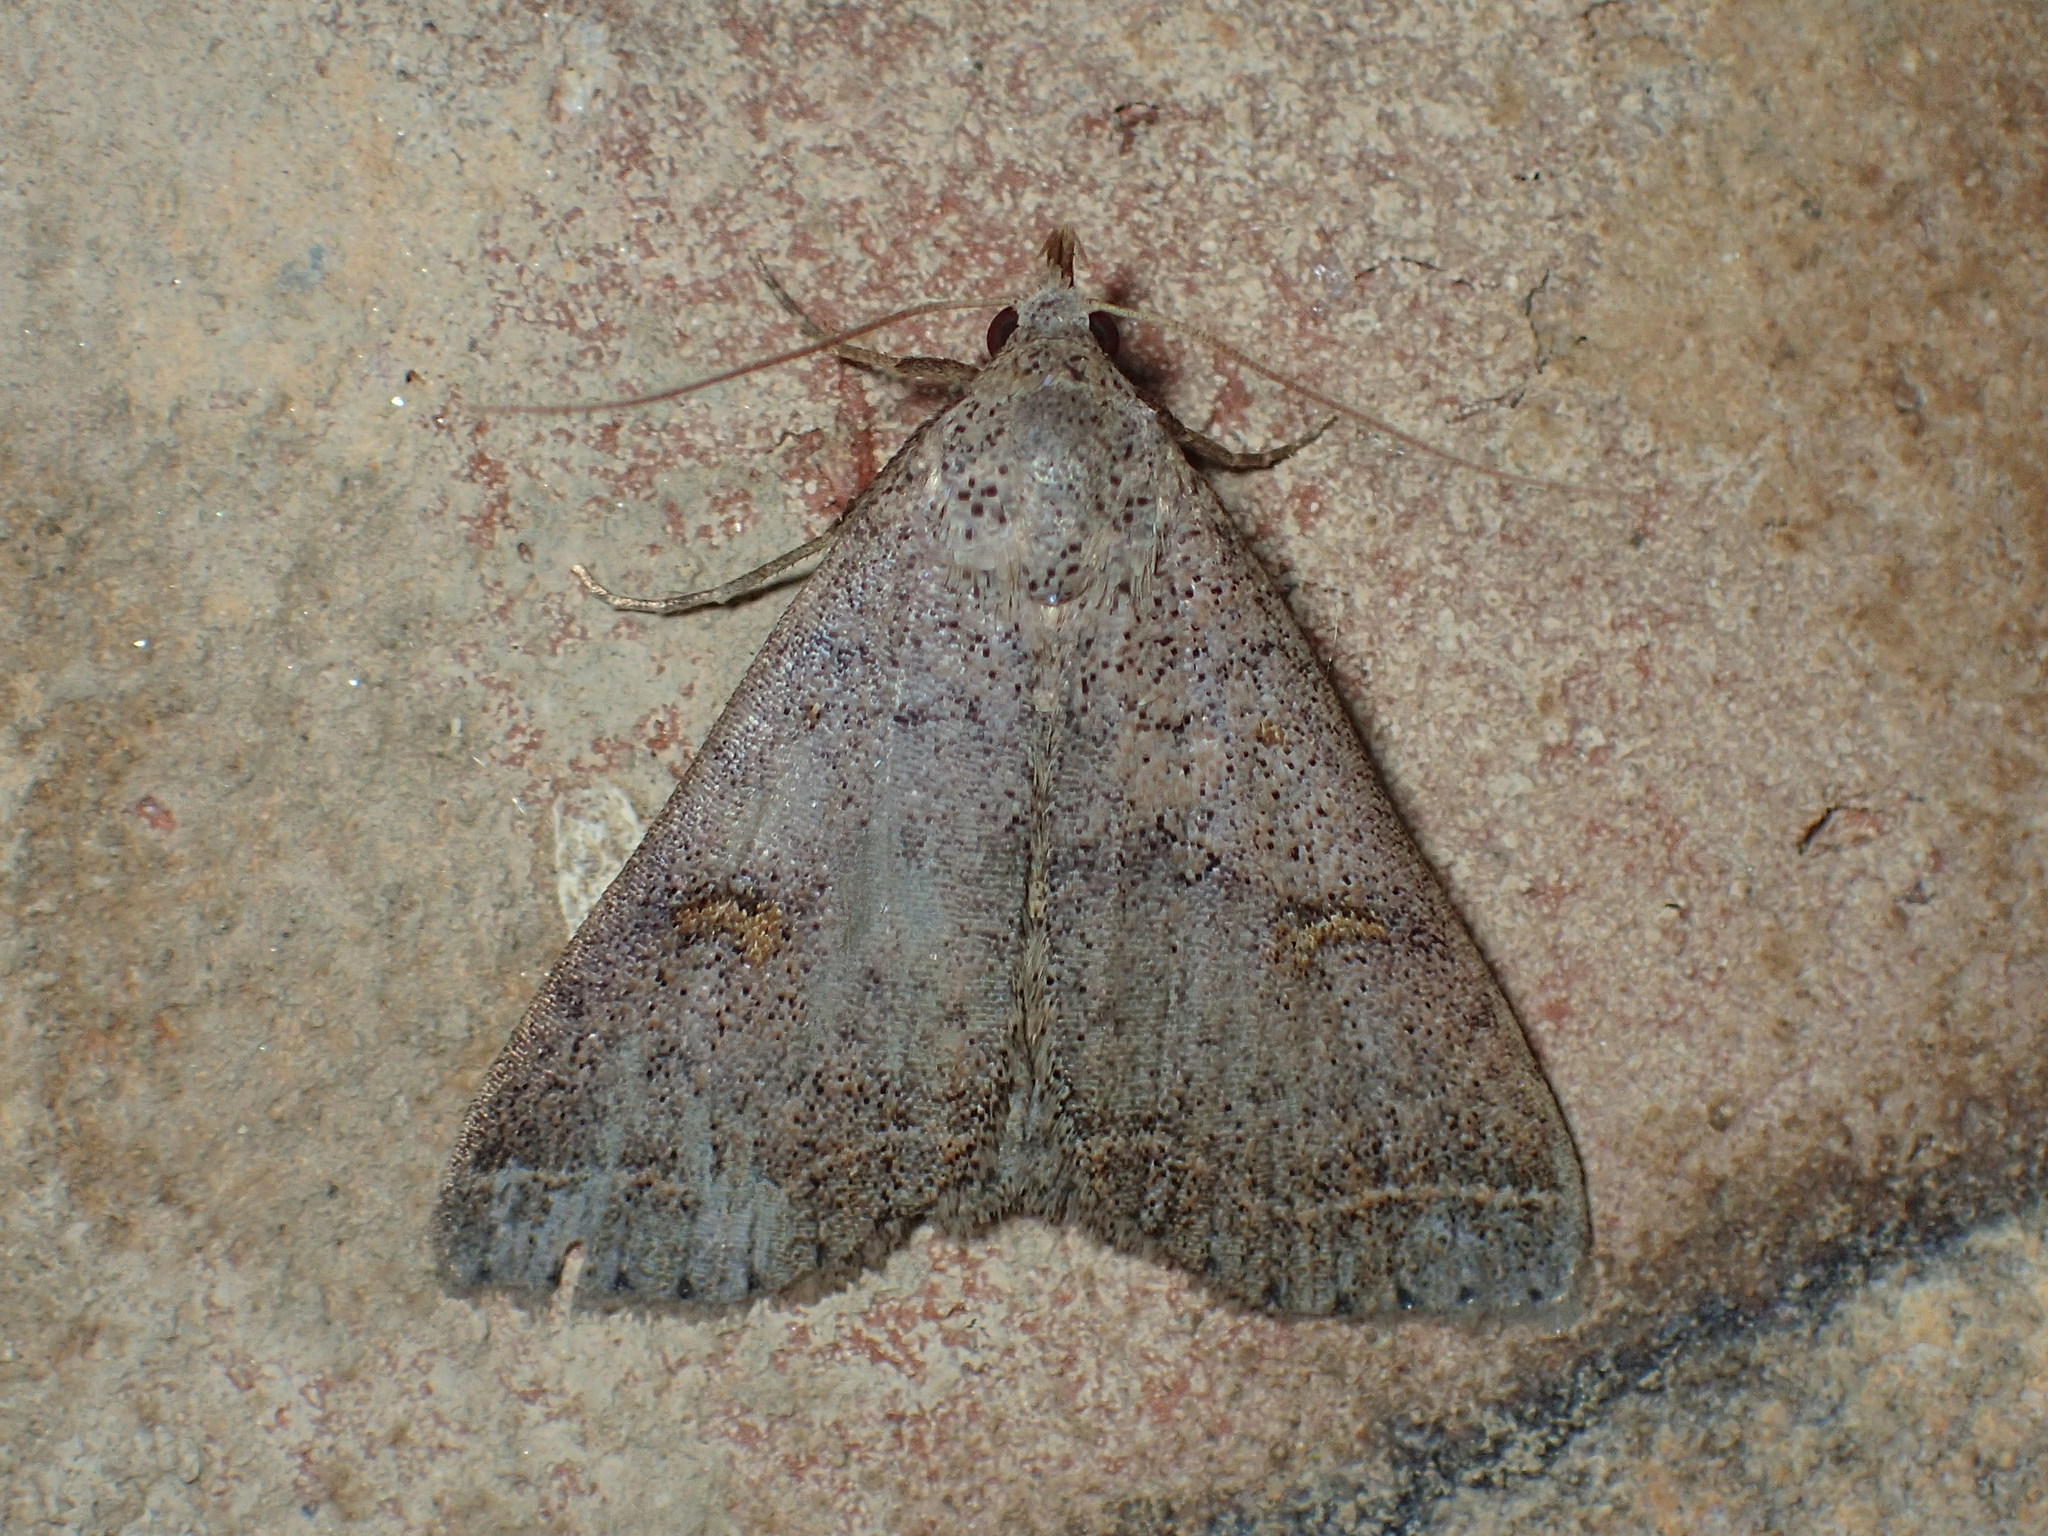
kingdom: Animalia
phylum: Arthropoda
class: Insecta
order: Lepidoptera
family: Erebidae
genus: Bleptina
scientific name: Bleptina caradrinalis
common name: Bent-winged owlet
